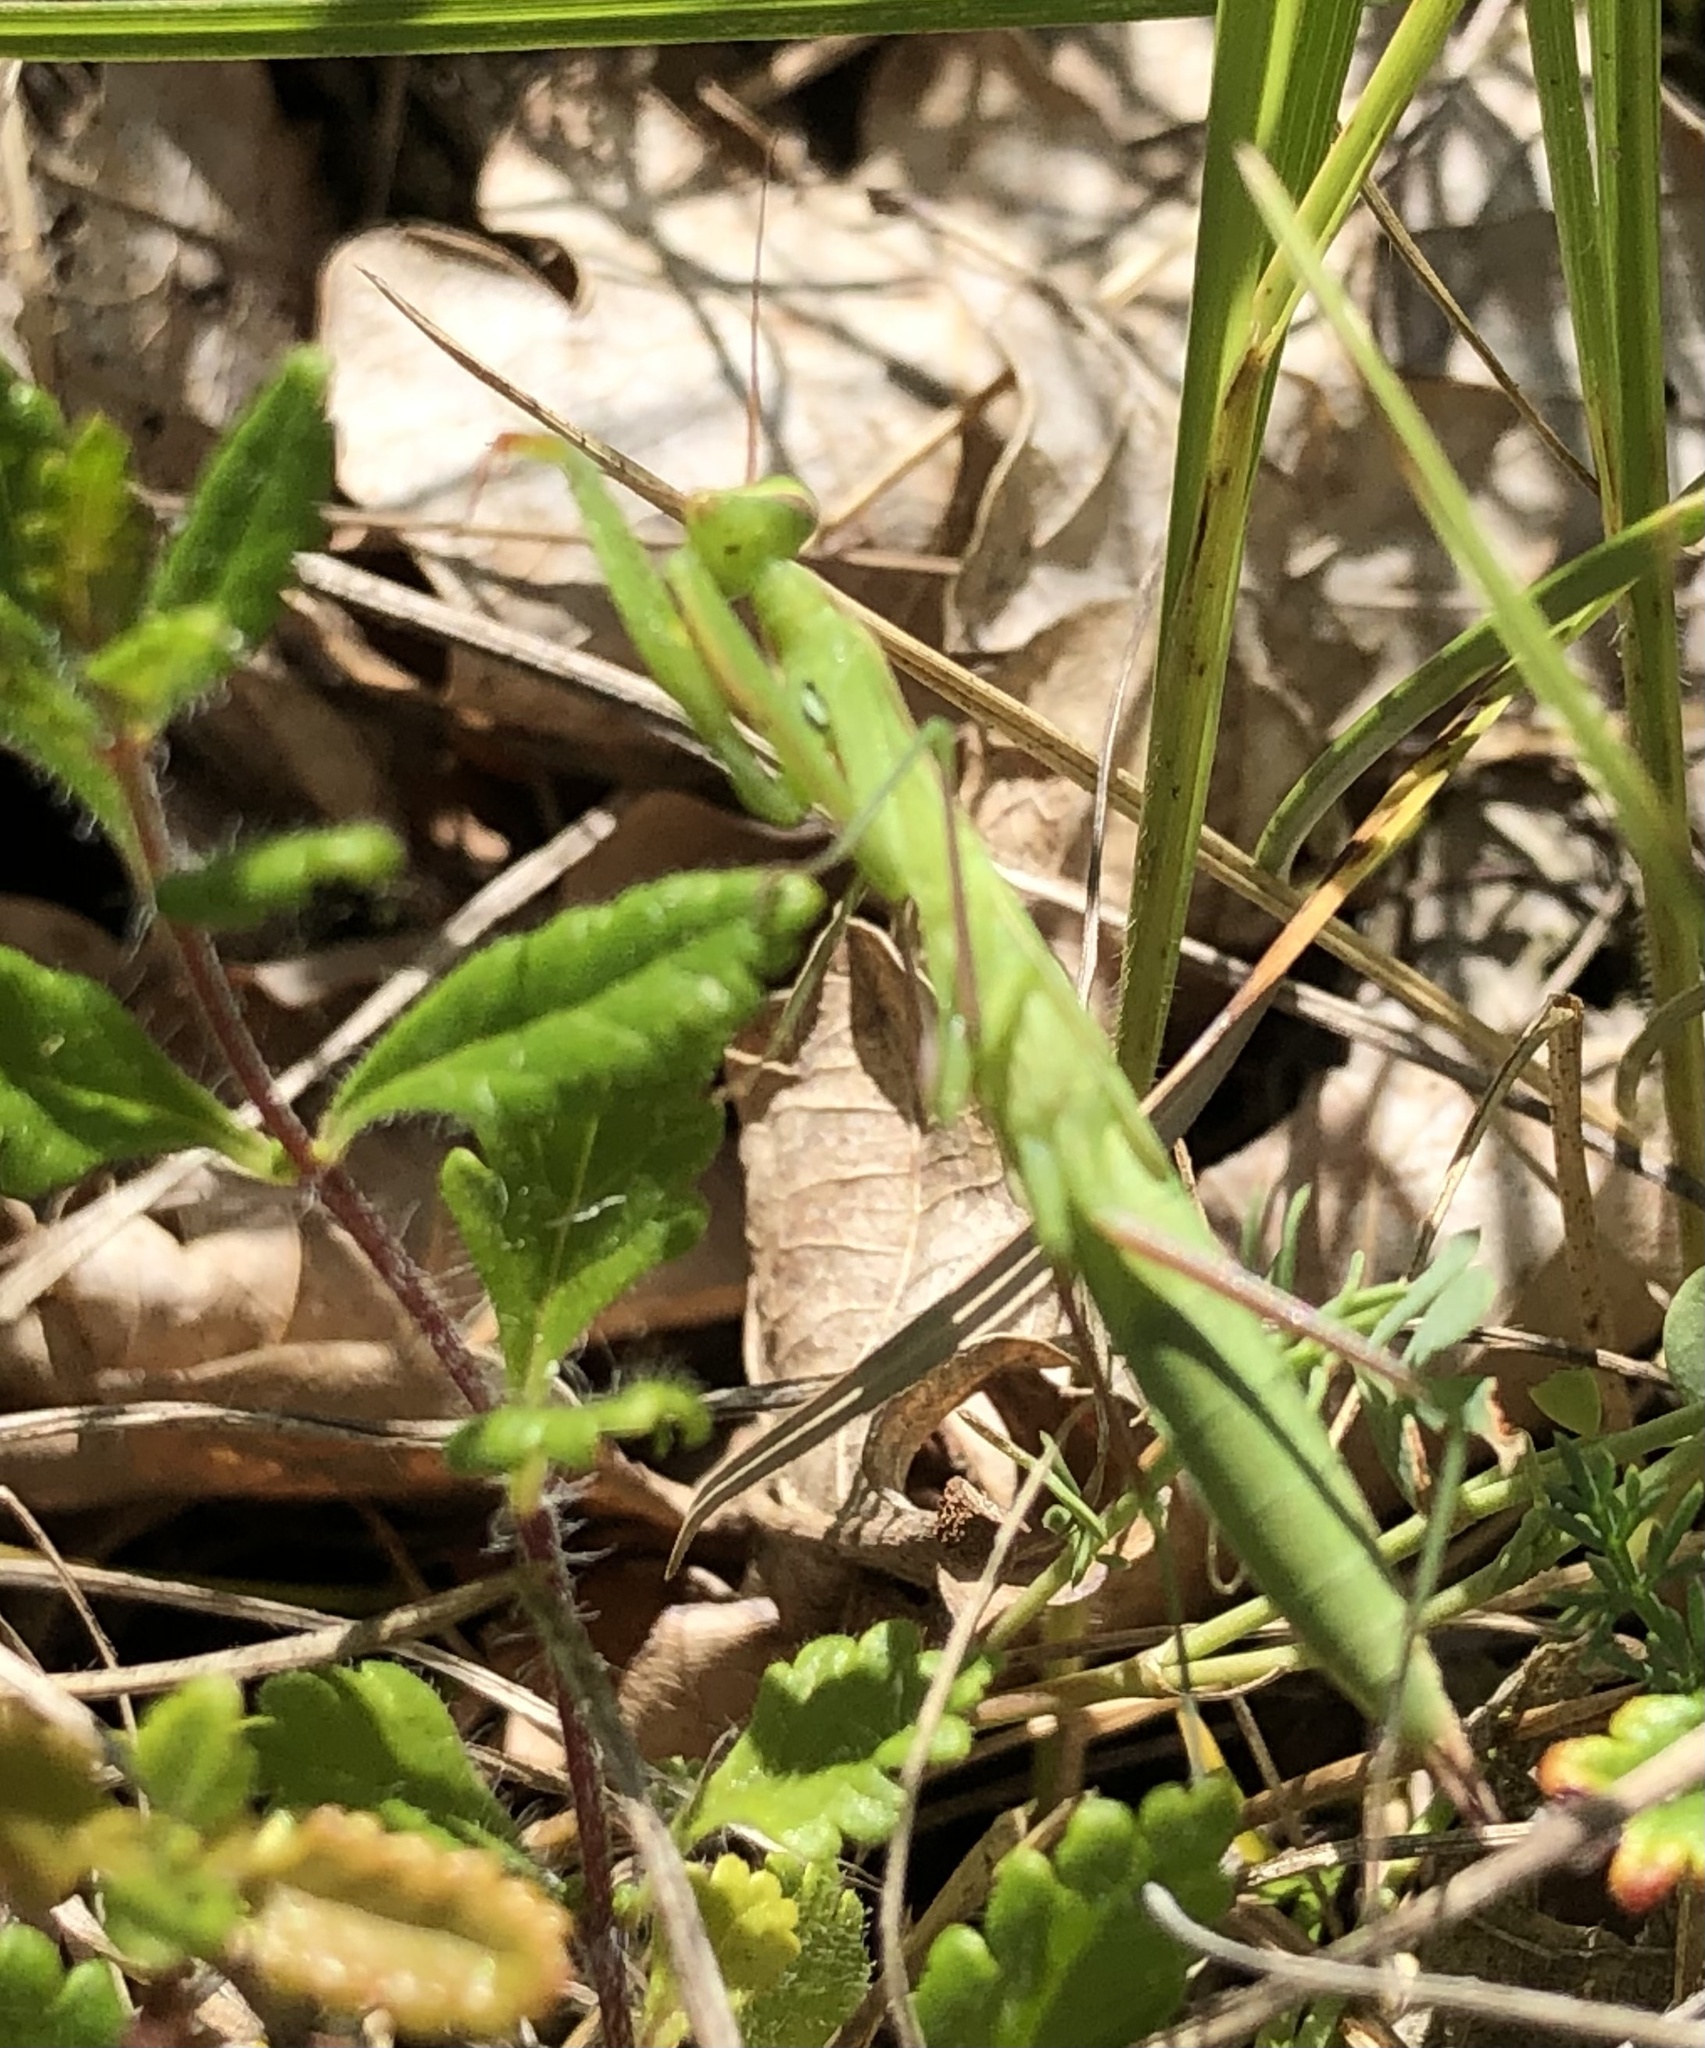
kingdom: Animalia
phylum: Arthropoda
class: Insecta
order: Mantodea
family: Mantidae
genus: Mantis
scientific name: Mantis religiosa
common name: Praying mantis
